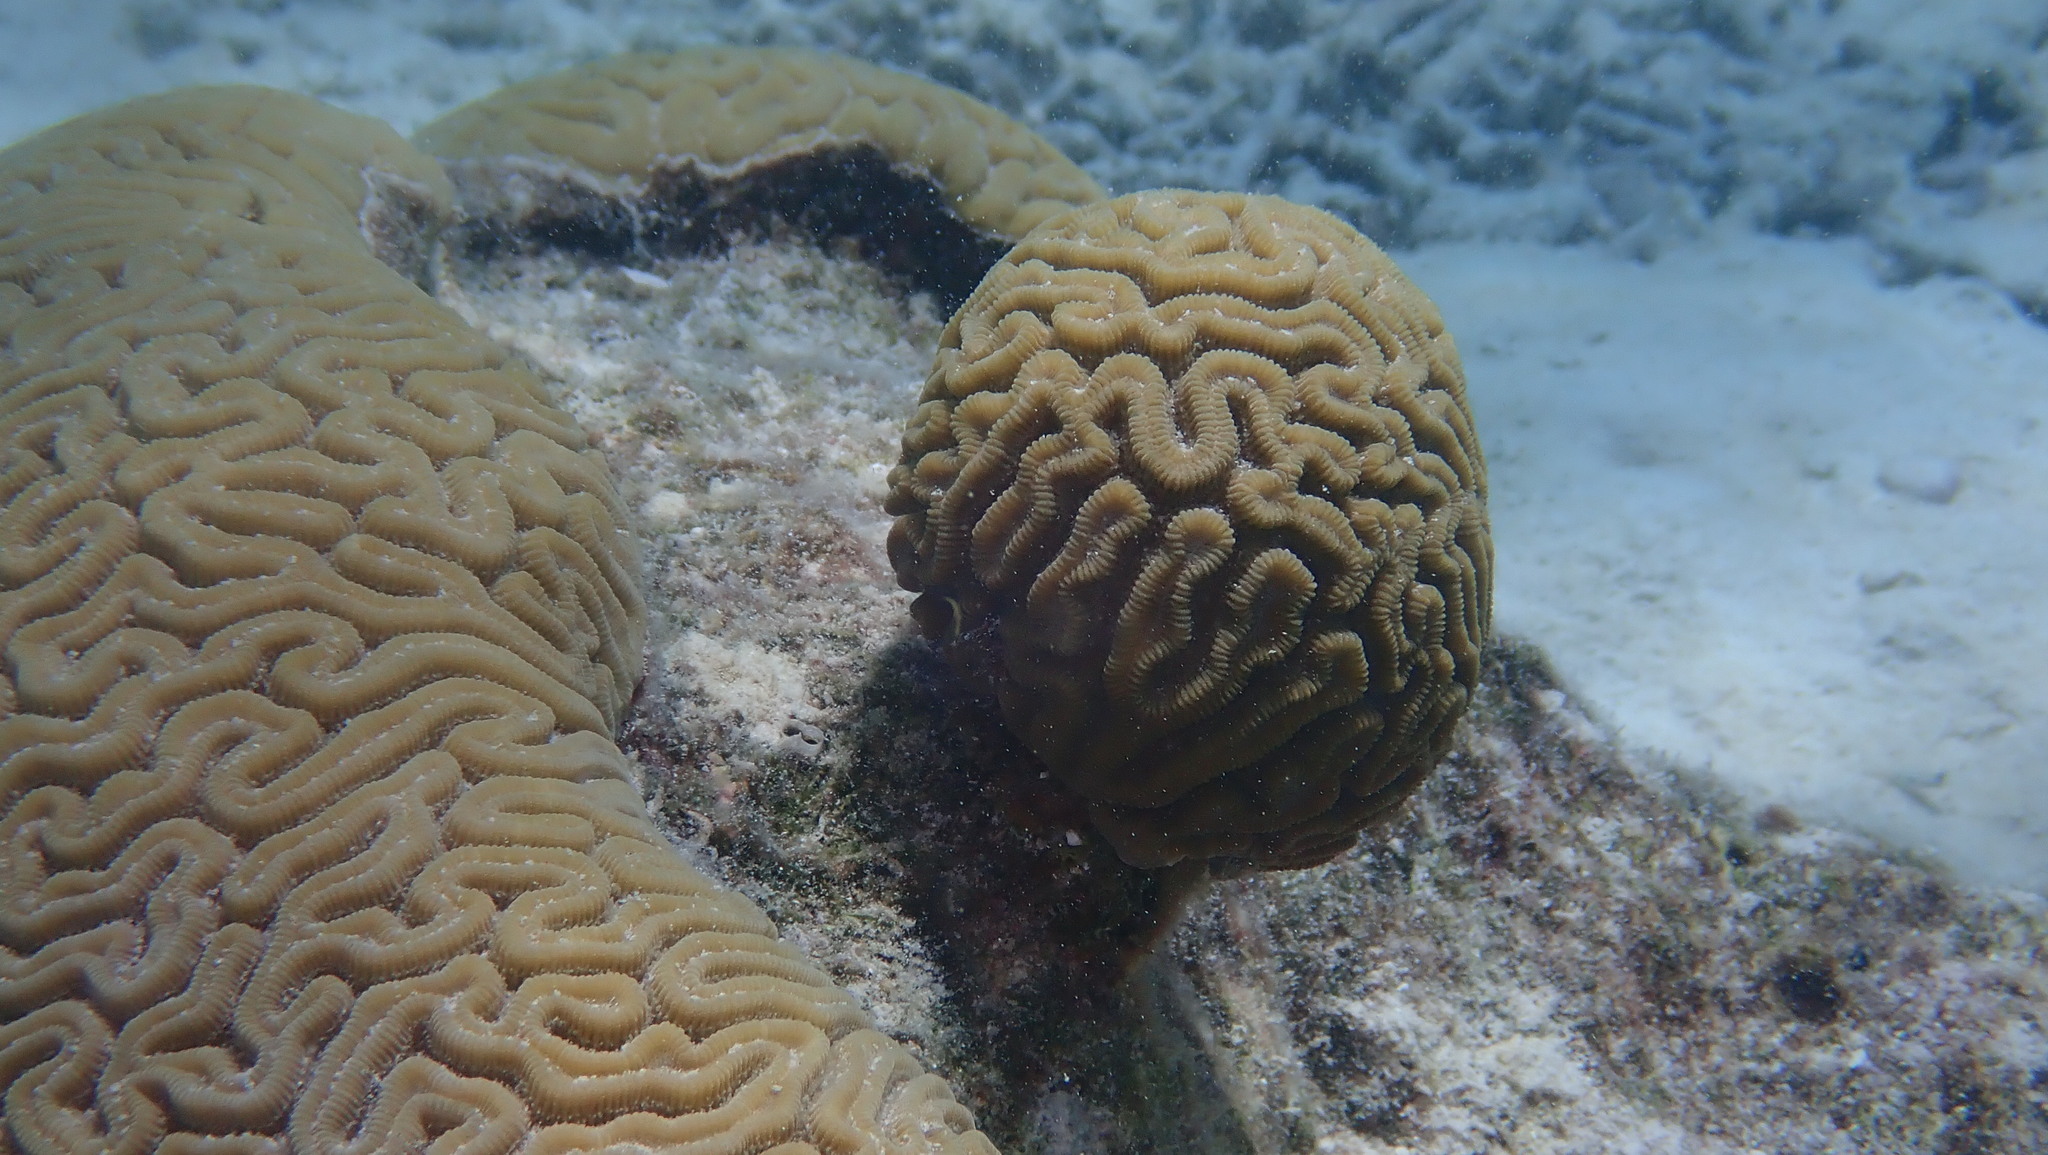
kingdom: Animalia
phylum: Cnidaria
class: Anthozoa
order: Scleractinia
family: Faviidae
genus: Diploria
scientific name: Diploria labyrinthiformis
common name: Grooved brain coral
